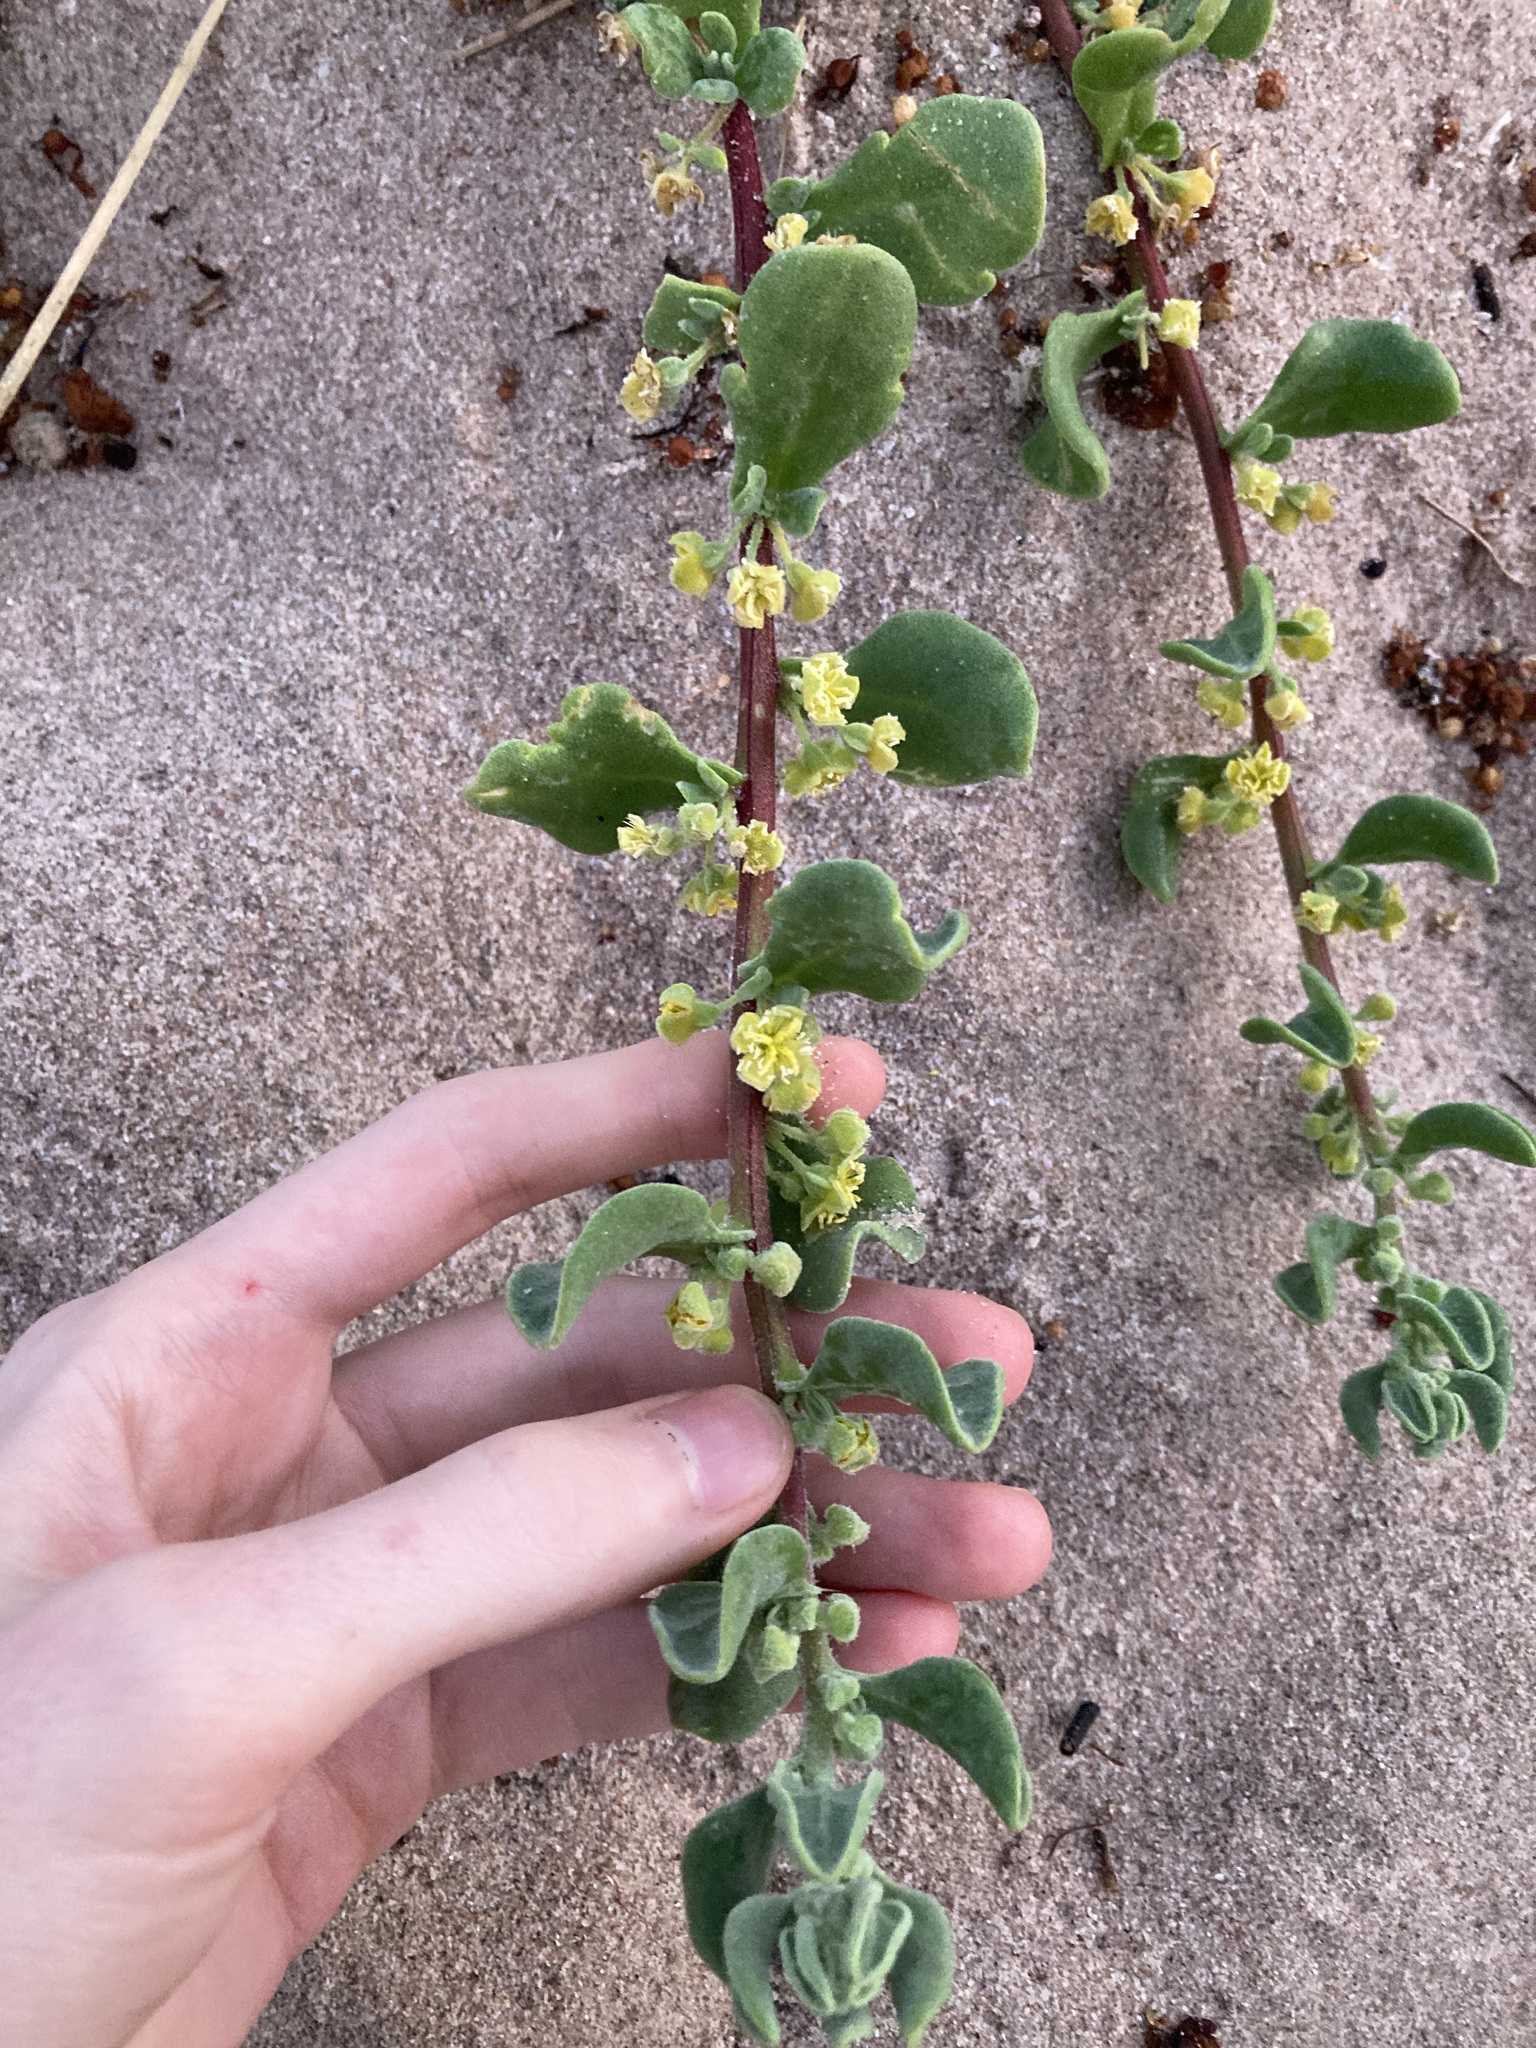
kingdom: Plantae
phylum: Tracheophyta
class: Magnoliopsida
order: Caryophyllales
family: Aizoaceae
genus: Tetragonia
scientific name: Tetragonia decumbens
